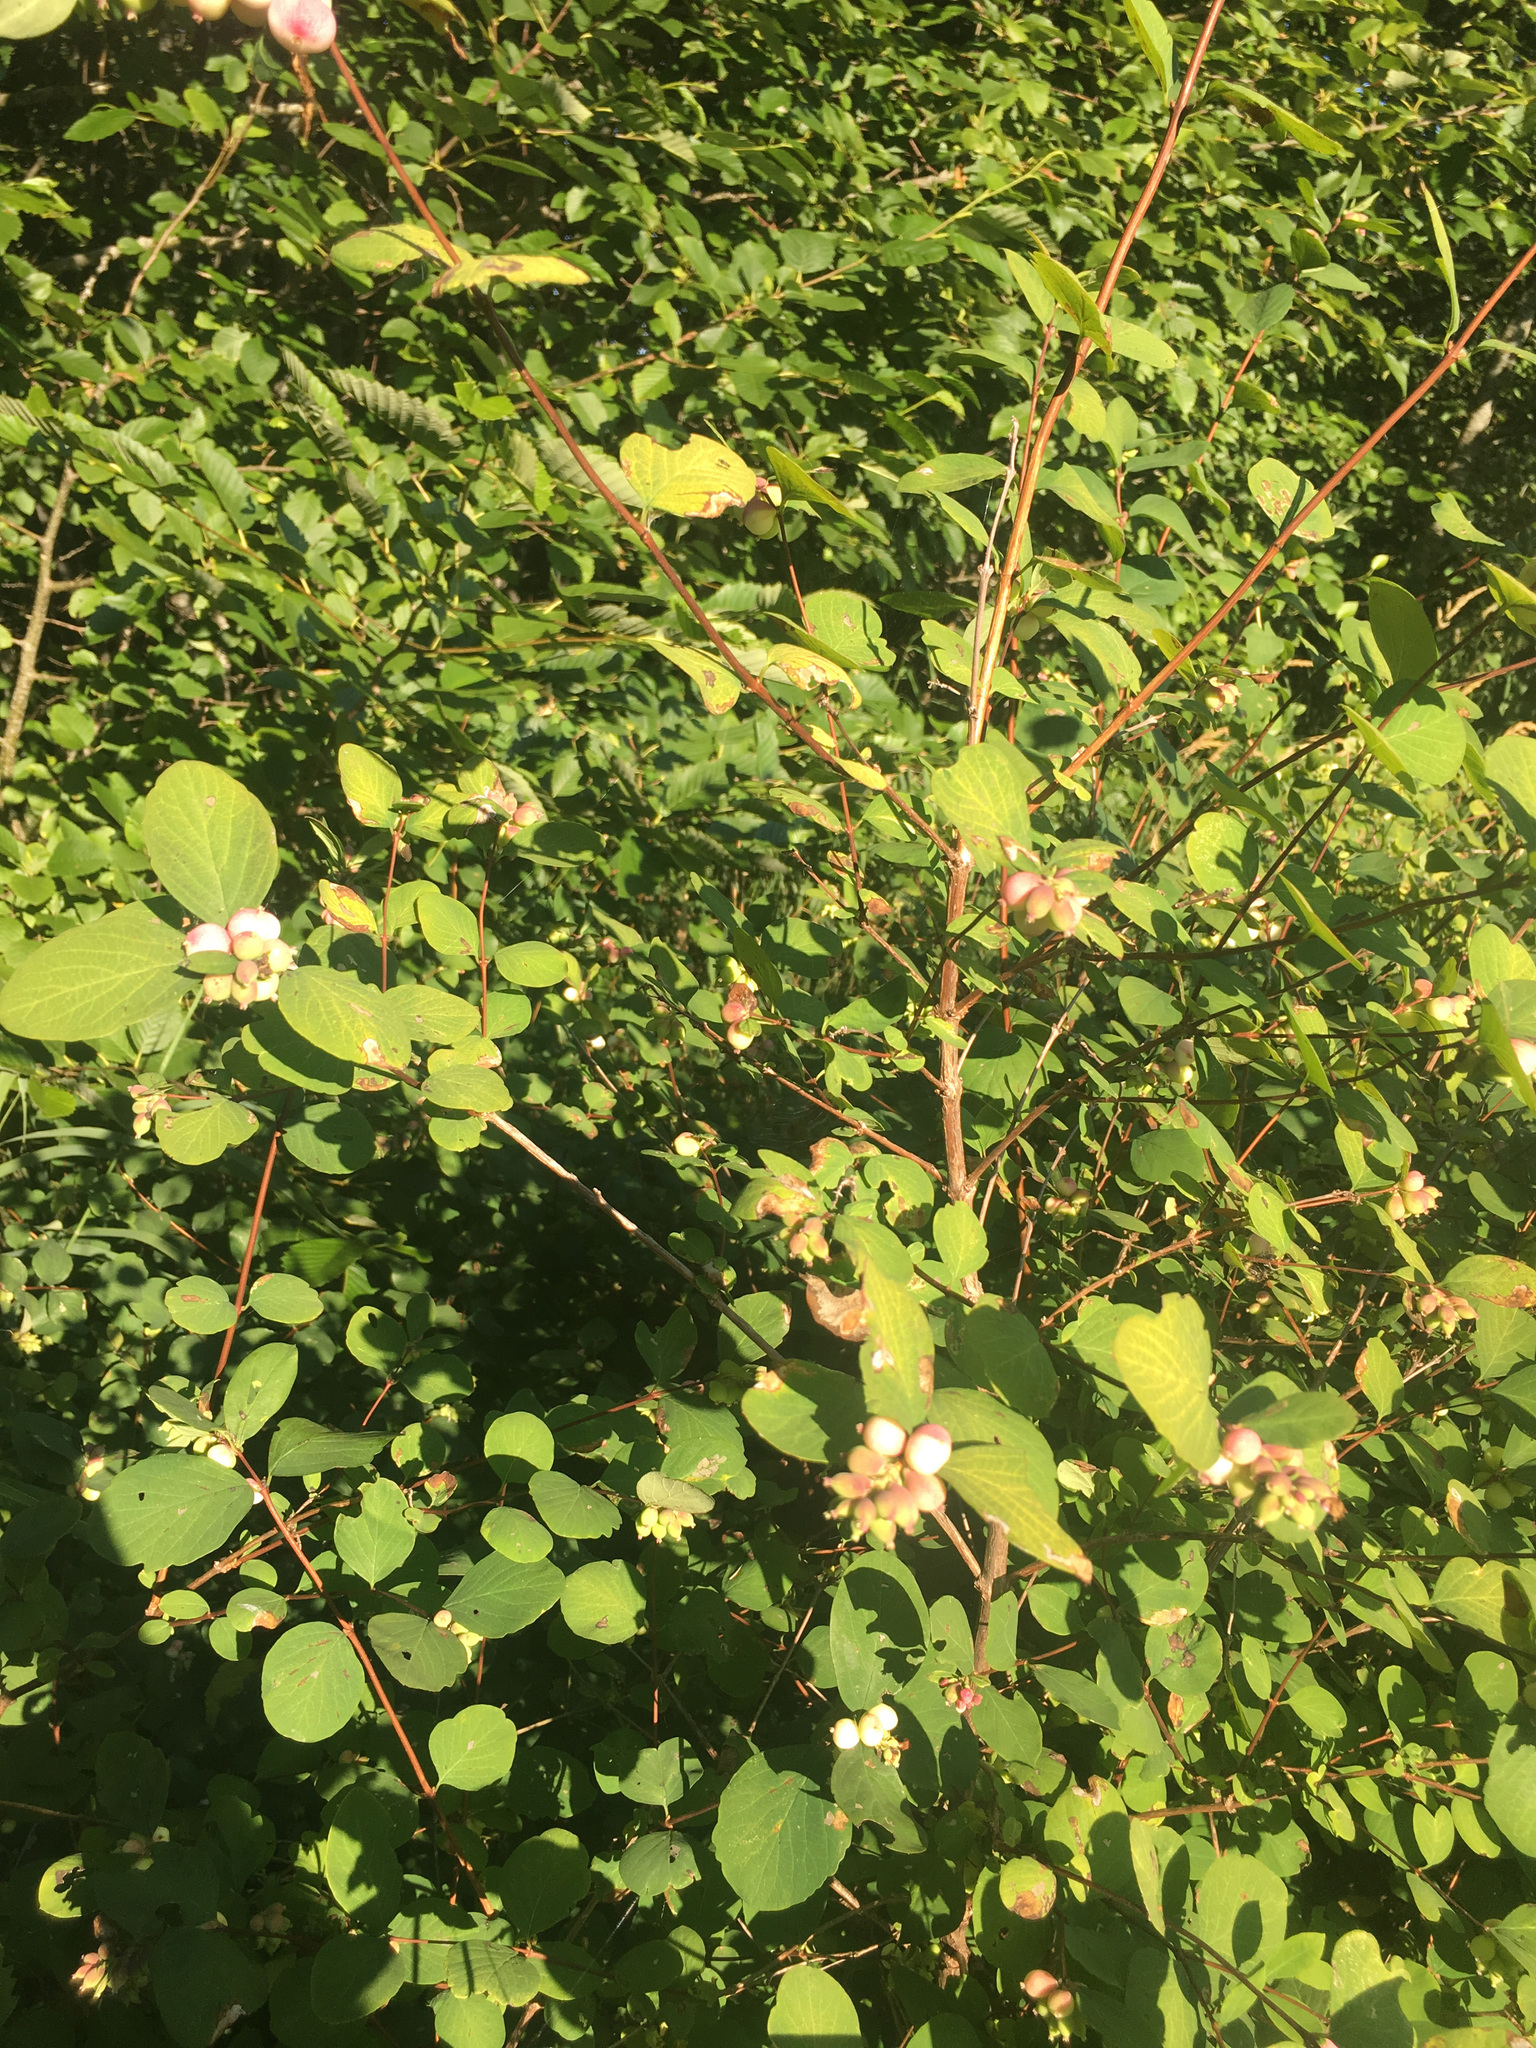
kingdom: Plantae
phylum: Tracheophyta
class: Magnoliopsida
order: Dipsacales
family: Caprifoliaceae
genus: Symphoricarpos
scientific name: Symphoricarpos albus
